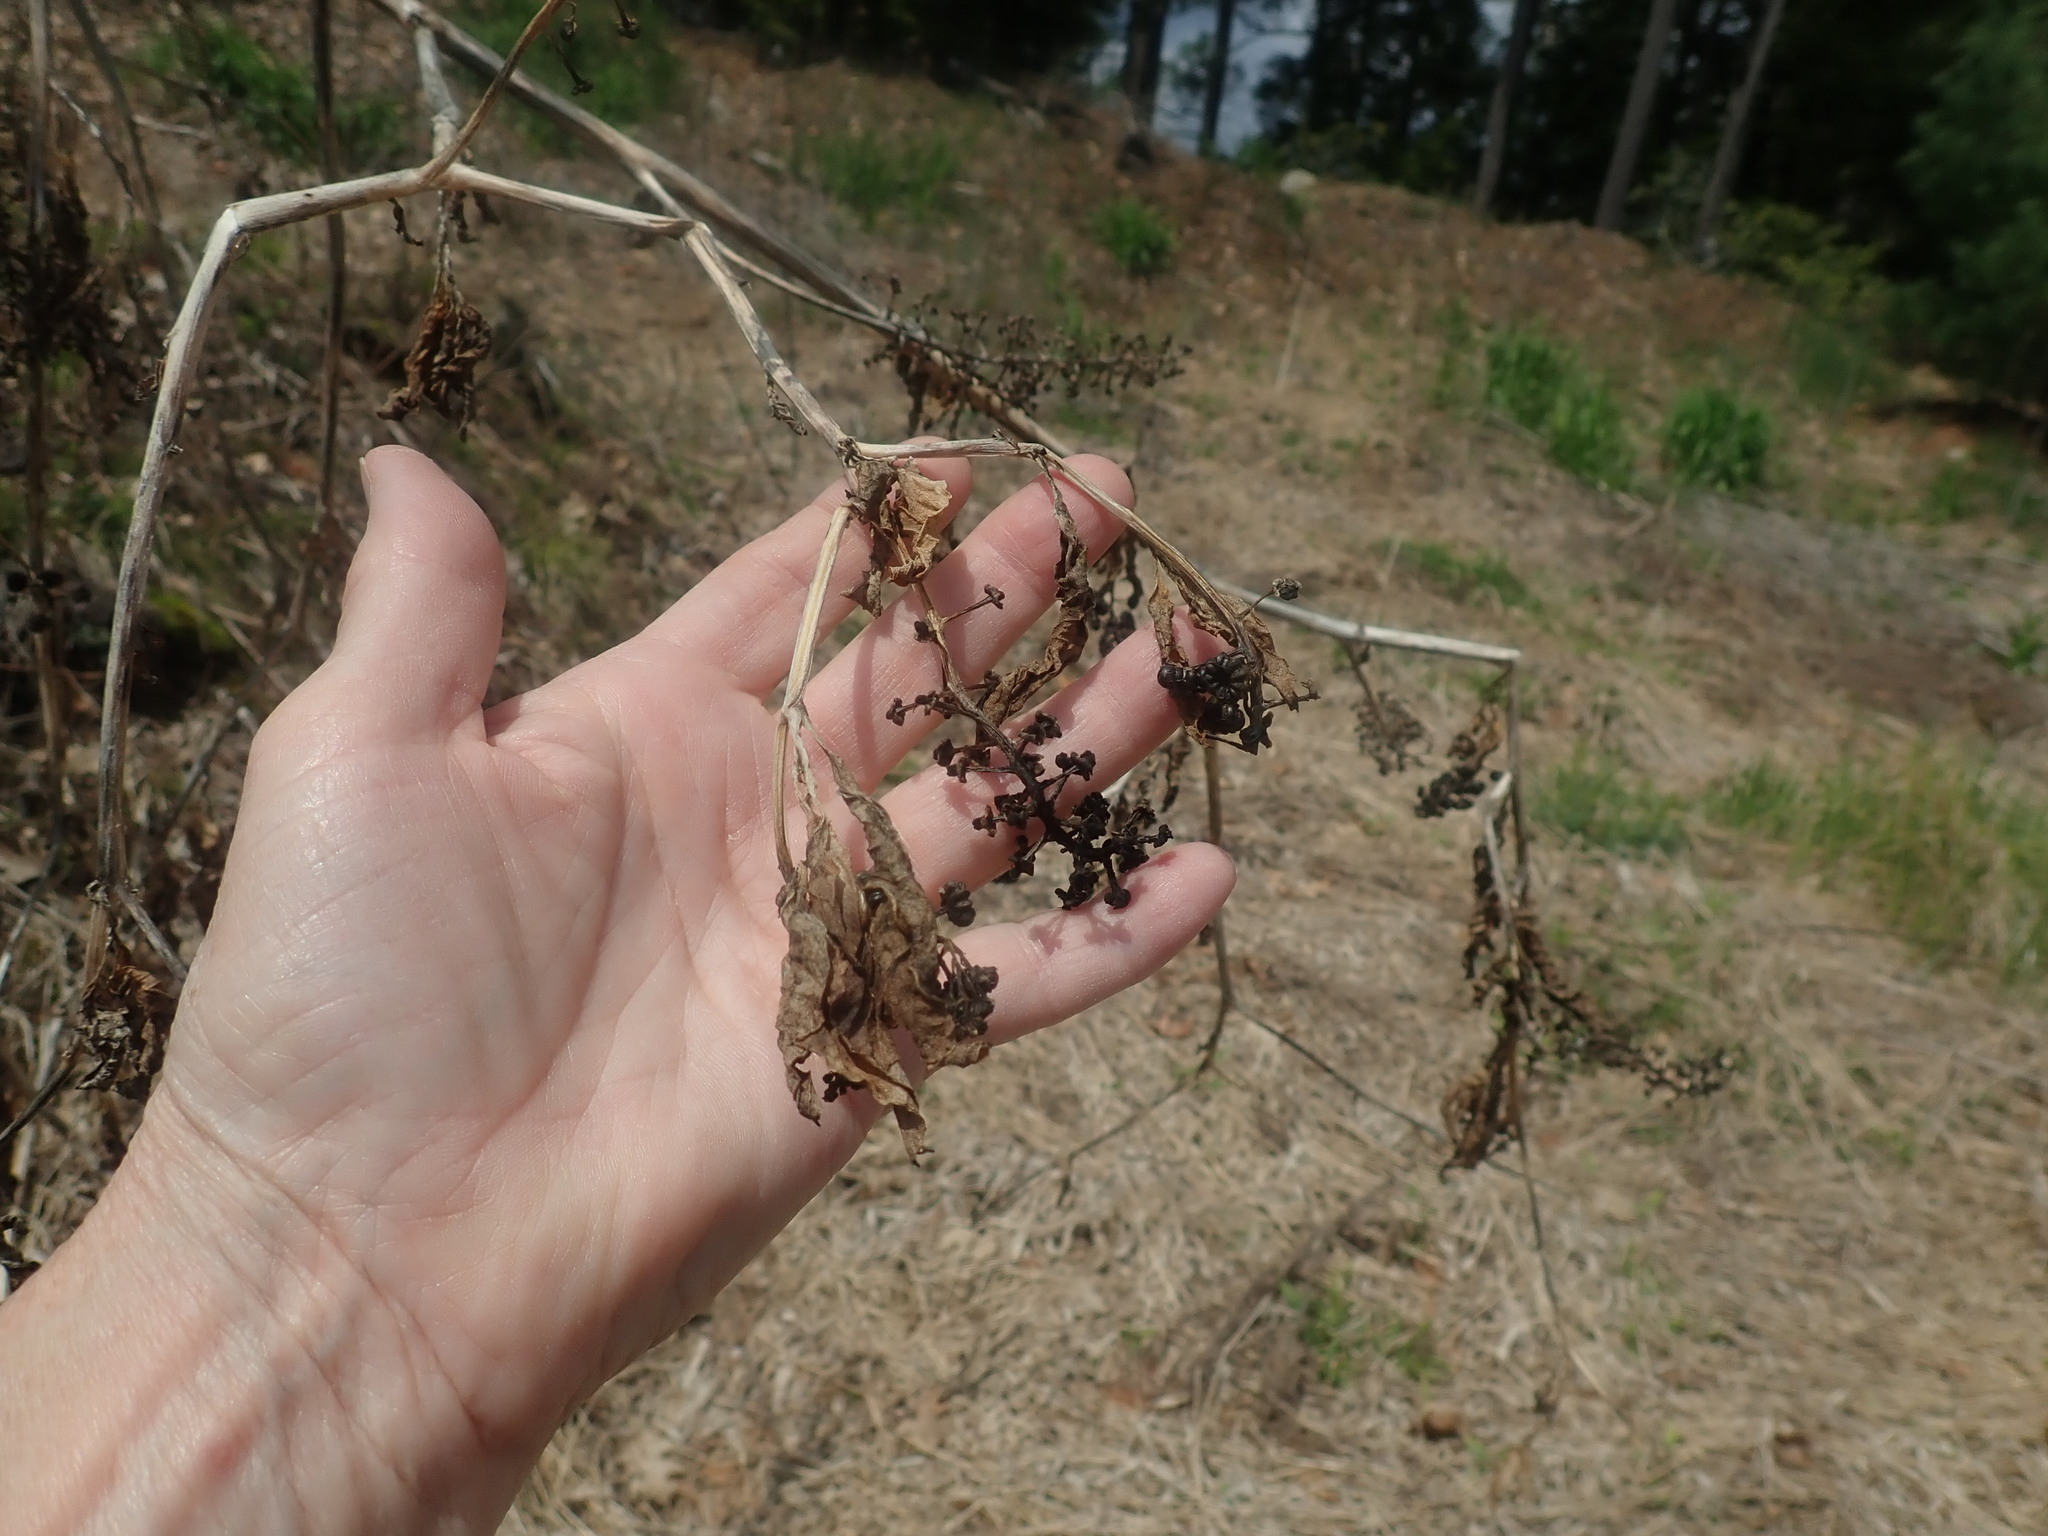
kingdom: Plantae
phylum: Tracheophyta
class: Magnoliopsida
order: Caryophyllales
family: Phytolaccaceae
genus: Phytolacca
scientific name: Phytolacca americana
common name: American pokeweed
